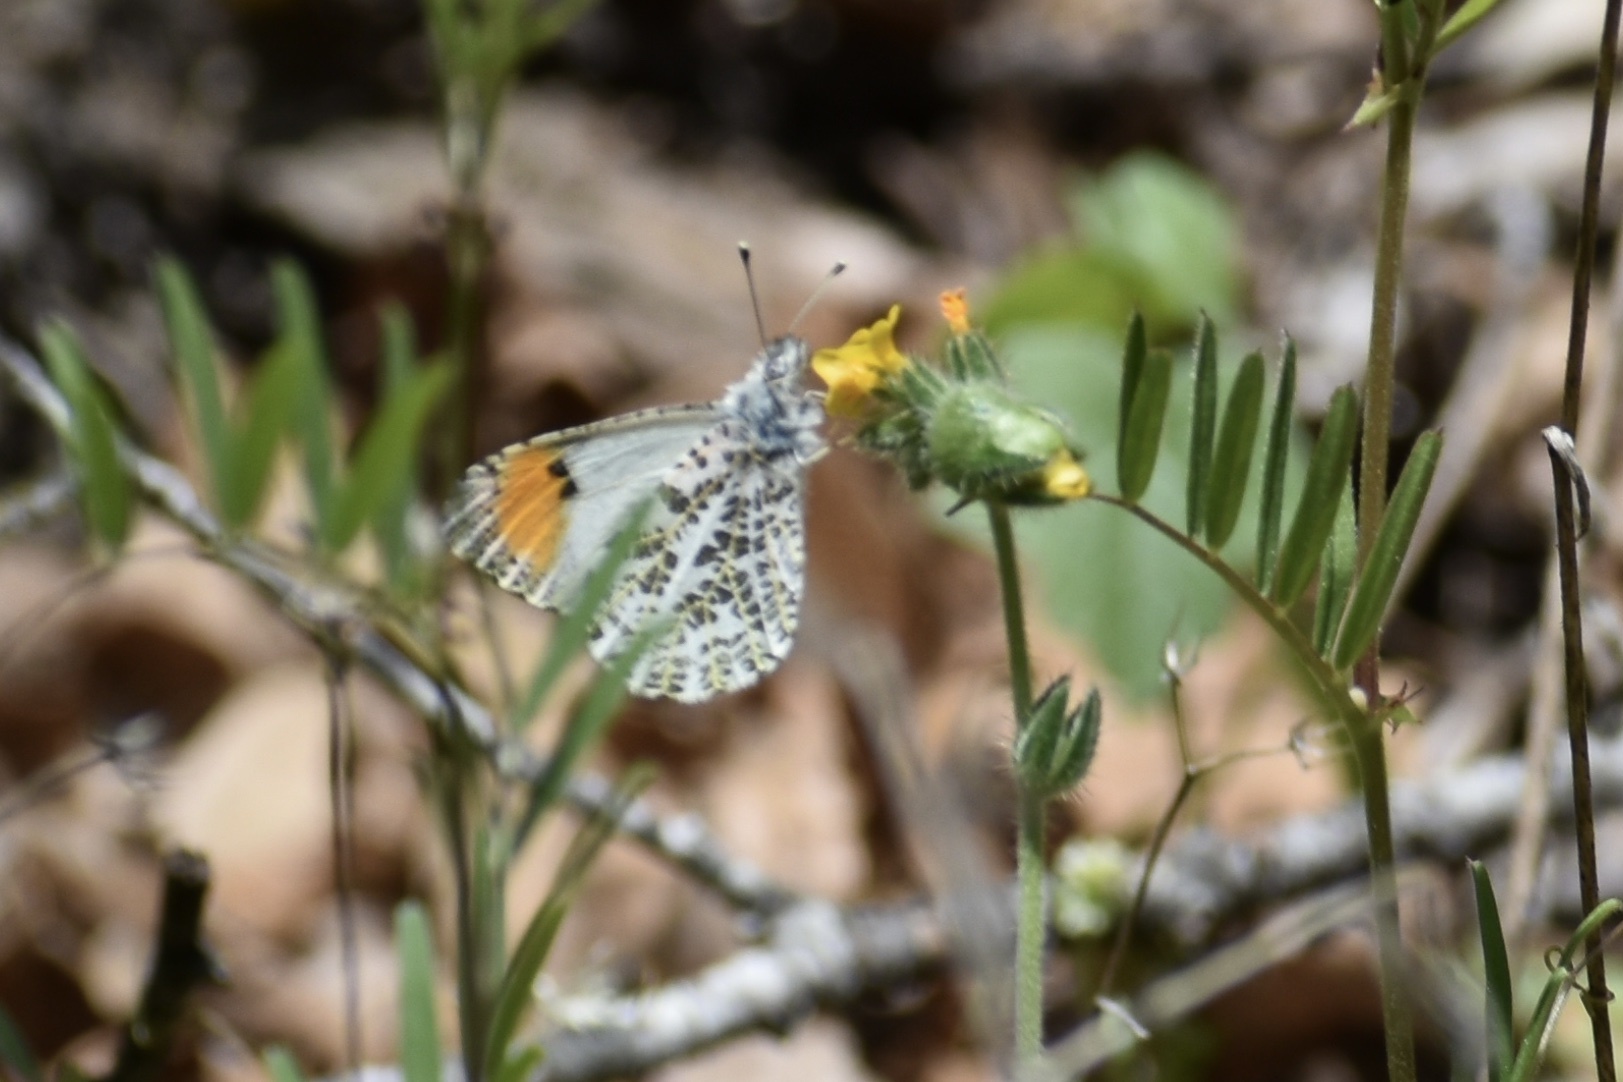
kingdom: Animalia
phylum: Arthropoda
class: Insecta
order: Lepidoptera
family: Pieridae
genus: Anthocharis
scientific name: Anthocharis sara
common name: Sara's orangetip
